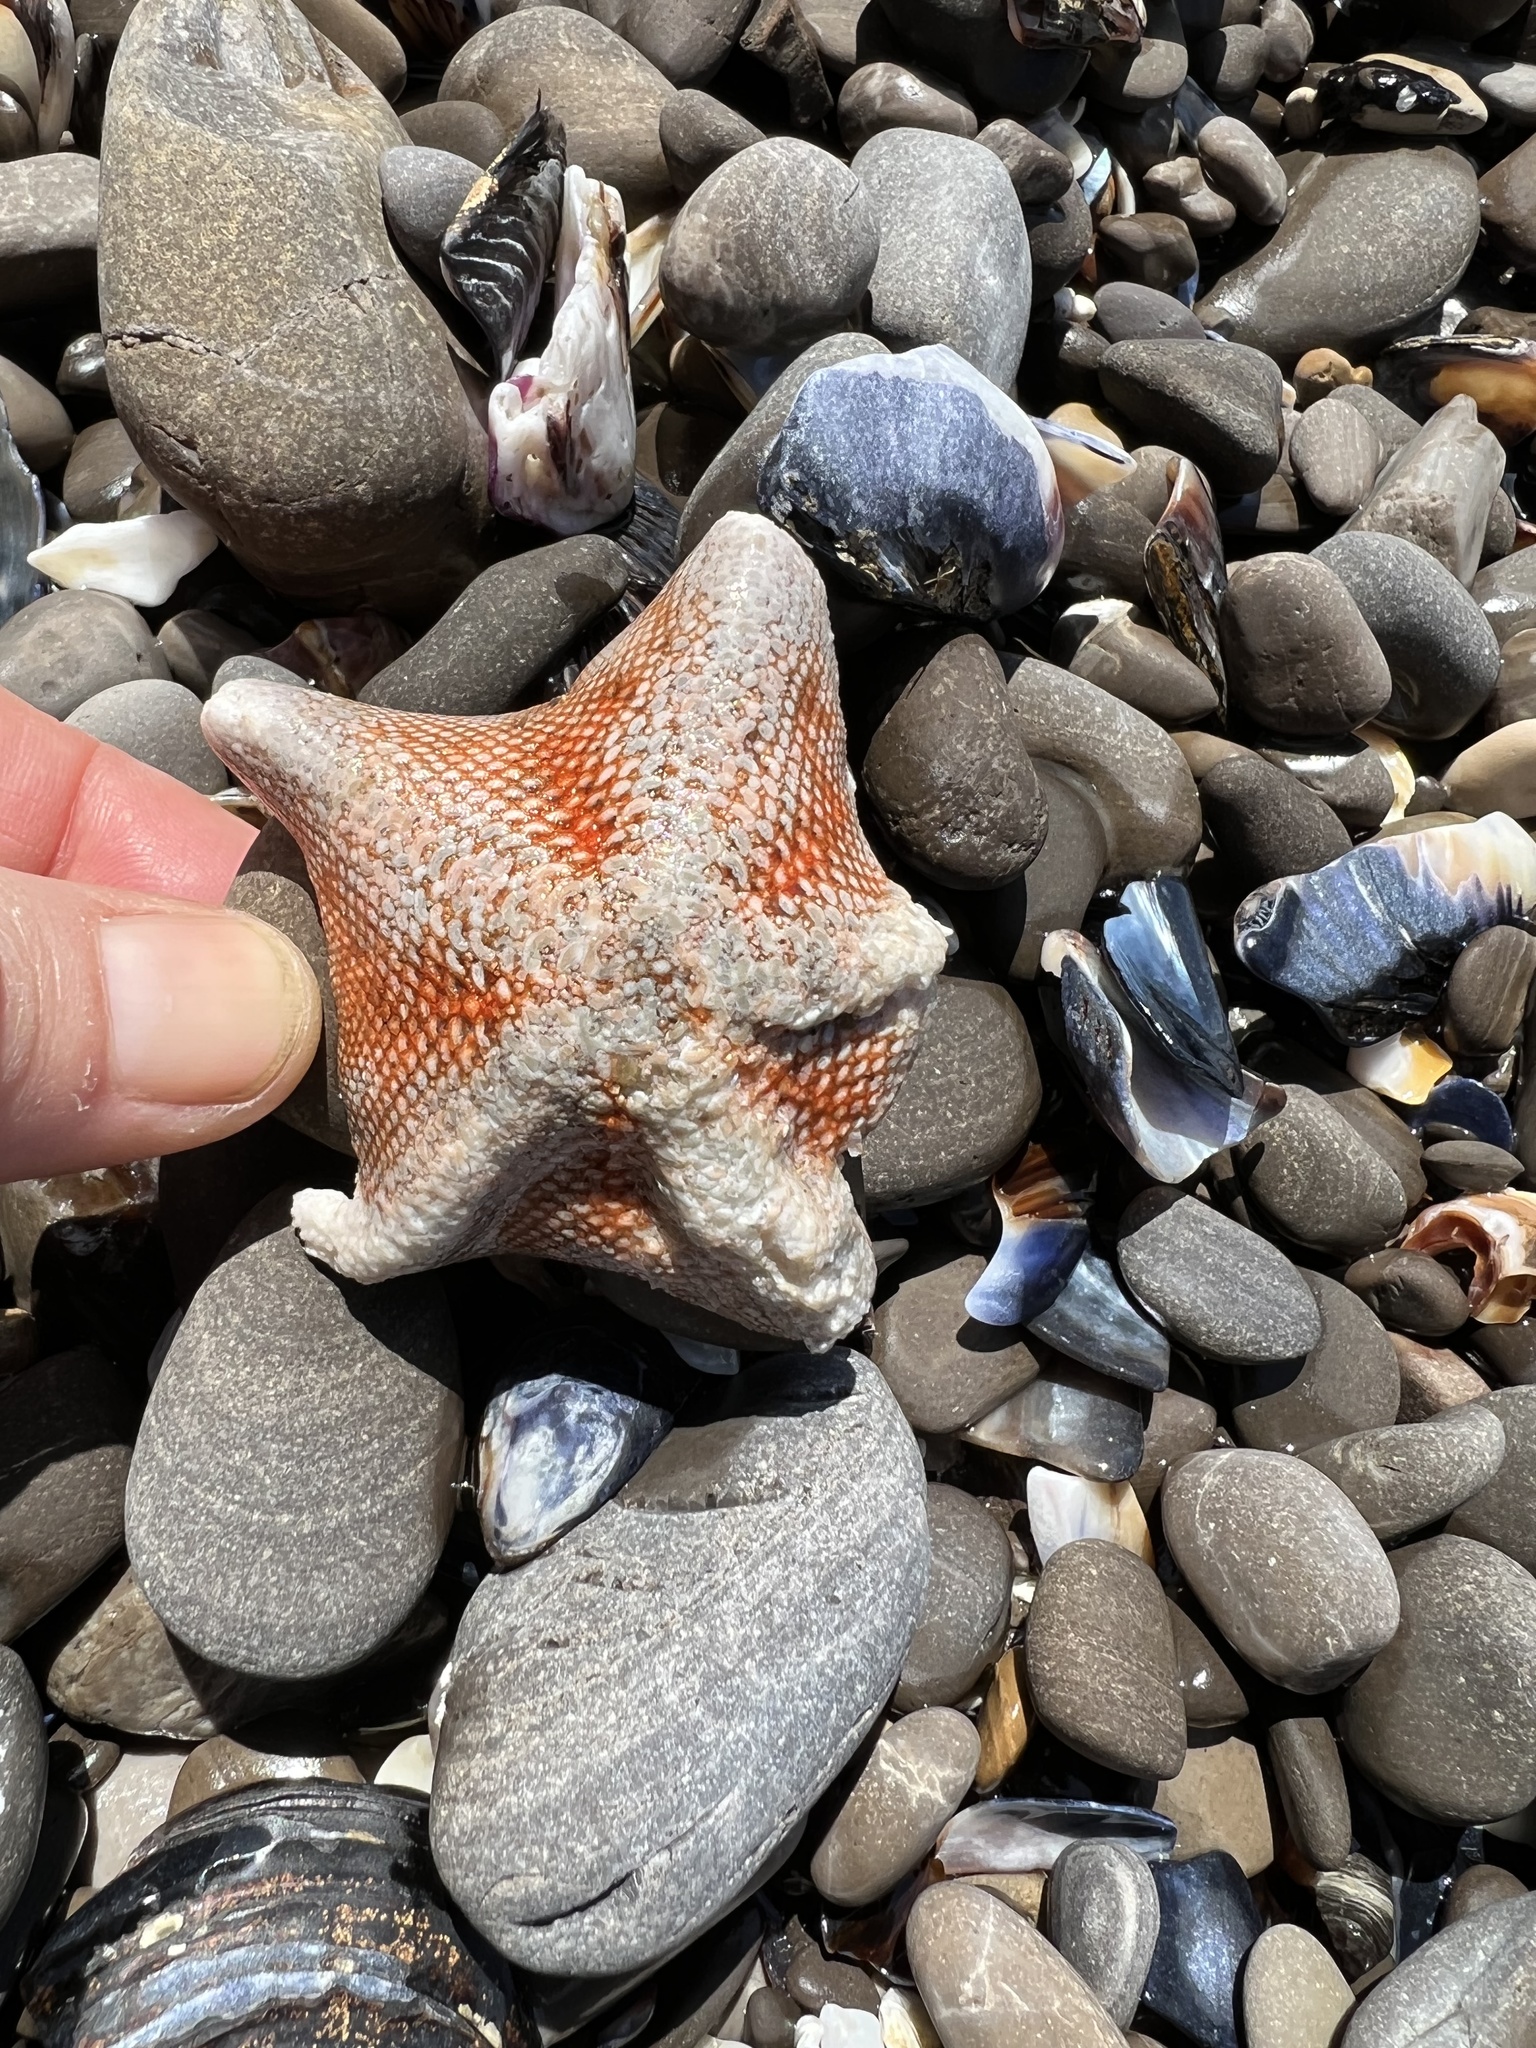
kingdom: Animalia
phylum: Echinodermata
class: Asteroidea
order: Valvatida
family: Asterinidae
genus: Patiria
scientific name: Patiria miniata
